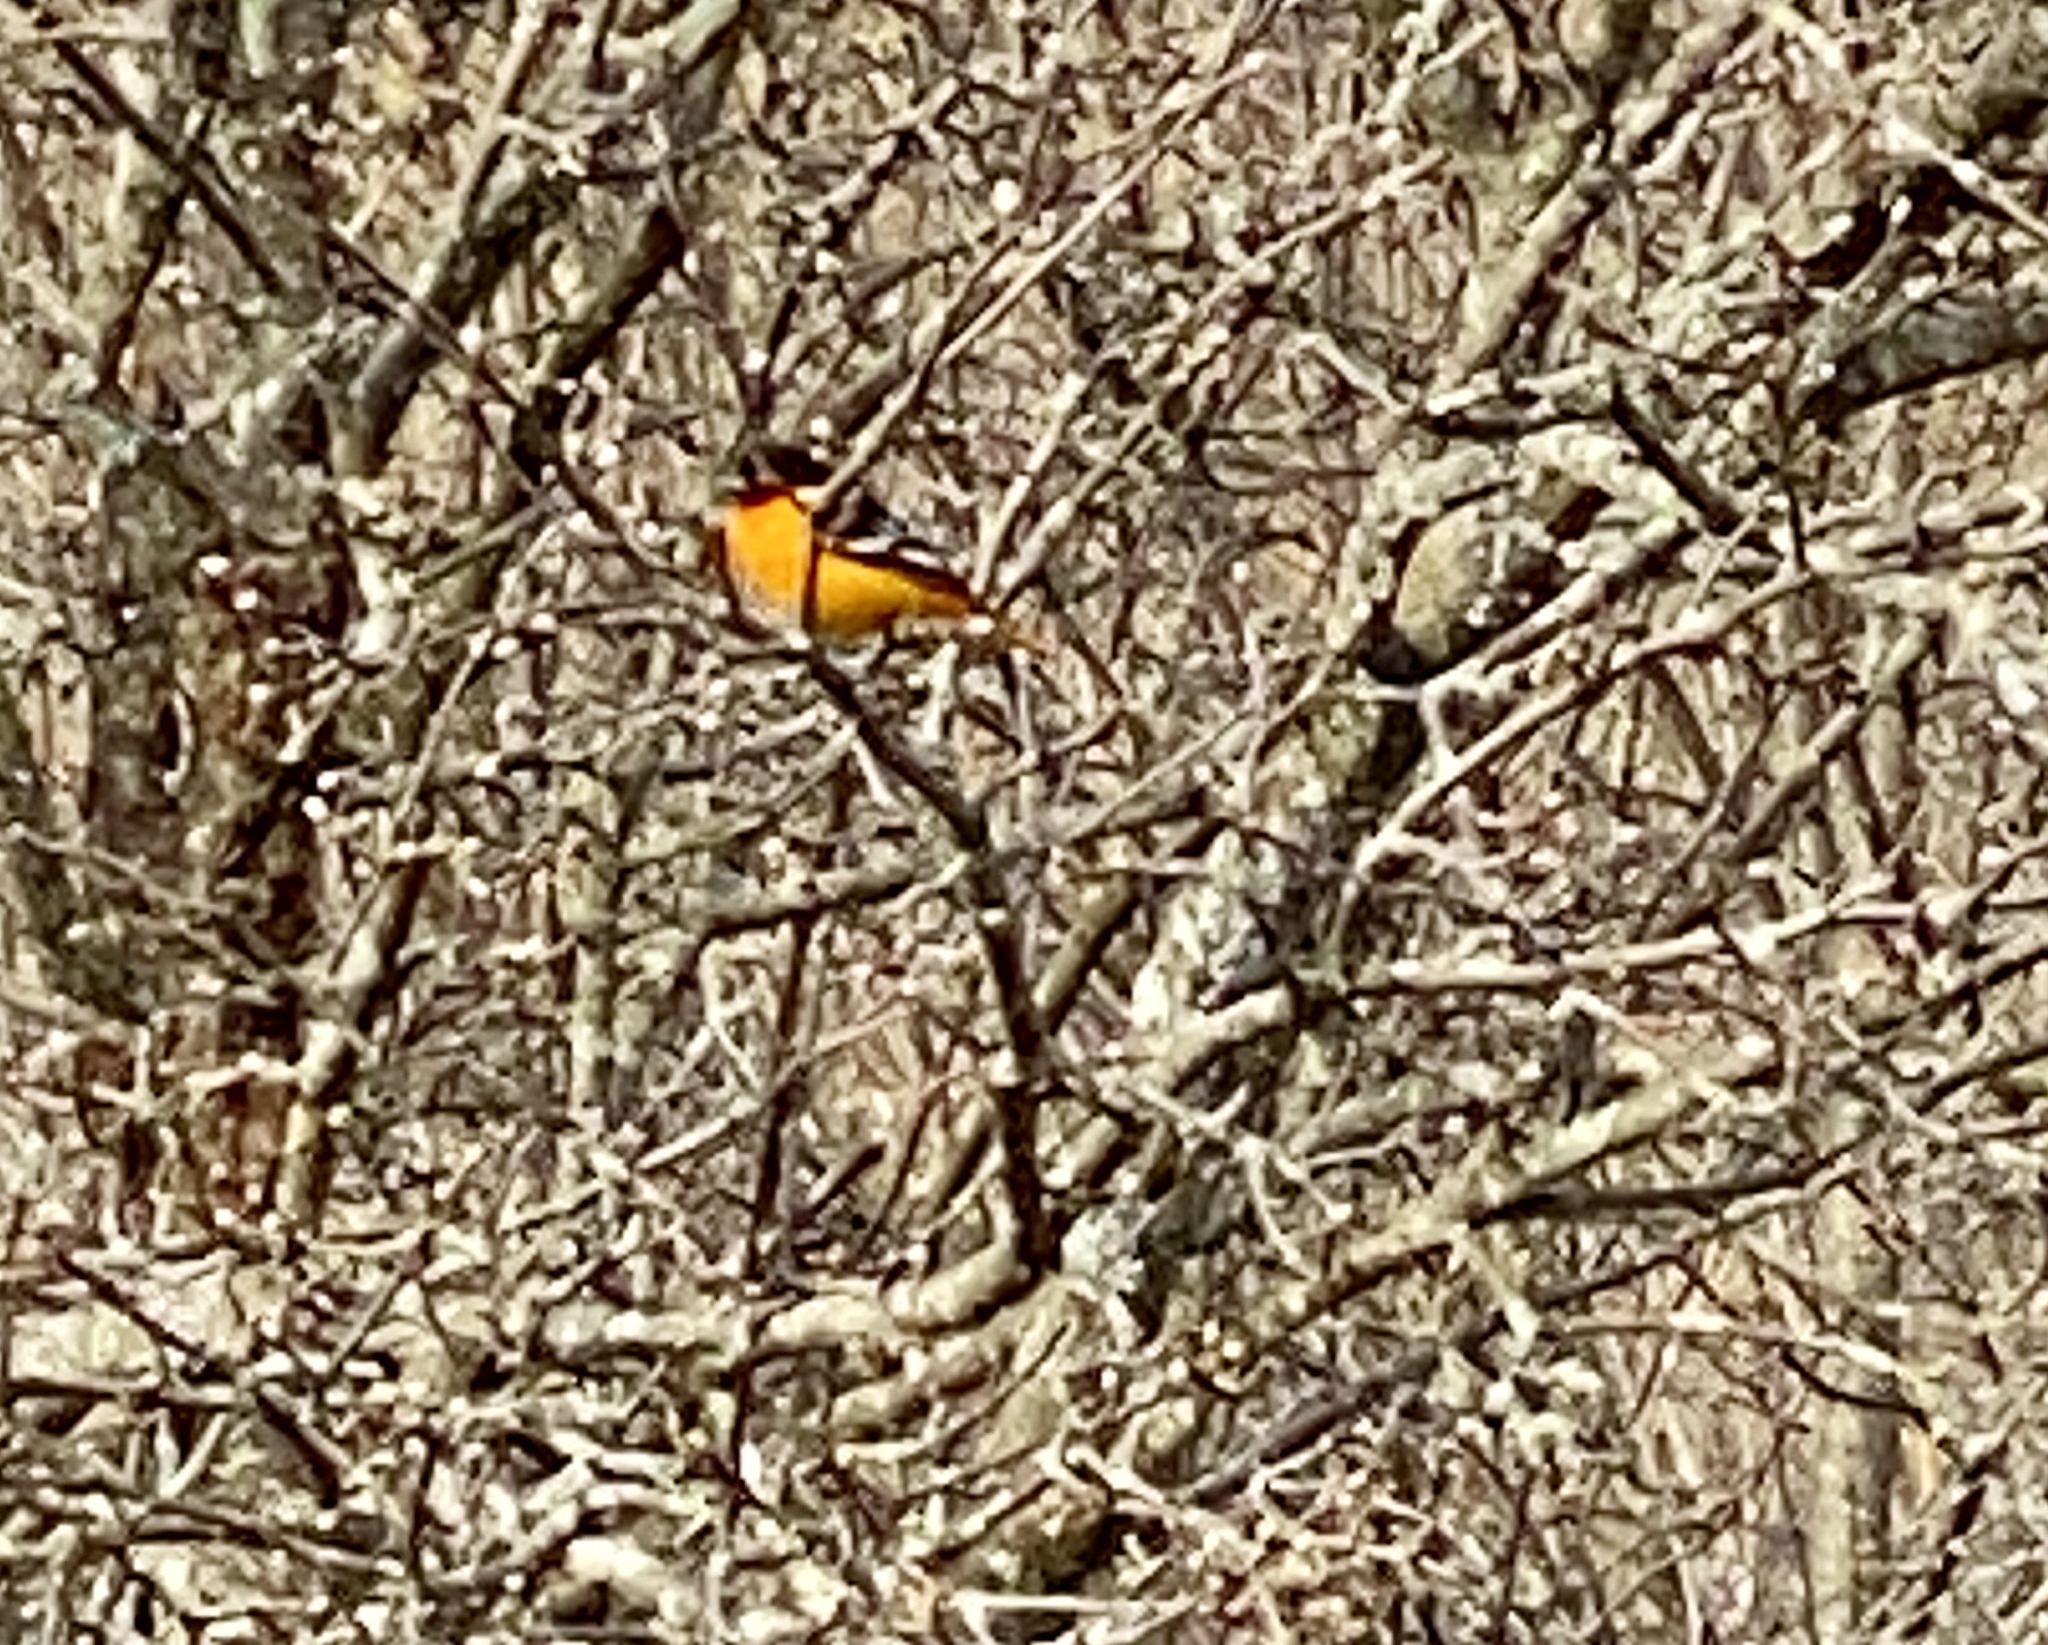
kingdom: Animalia
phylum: Chordata
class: Aves
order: Passeriformes
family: Icteridae
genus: Icterus
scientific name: Icterus galbula
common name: Baltimore oriole
